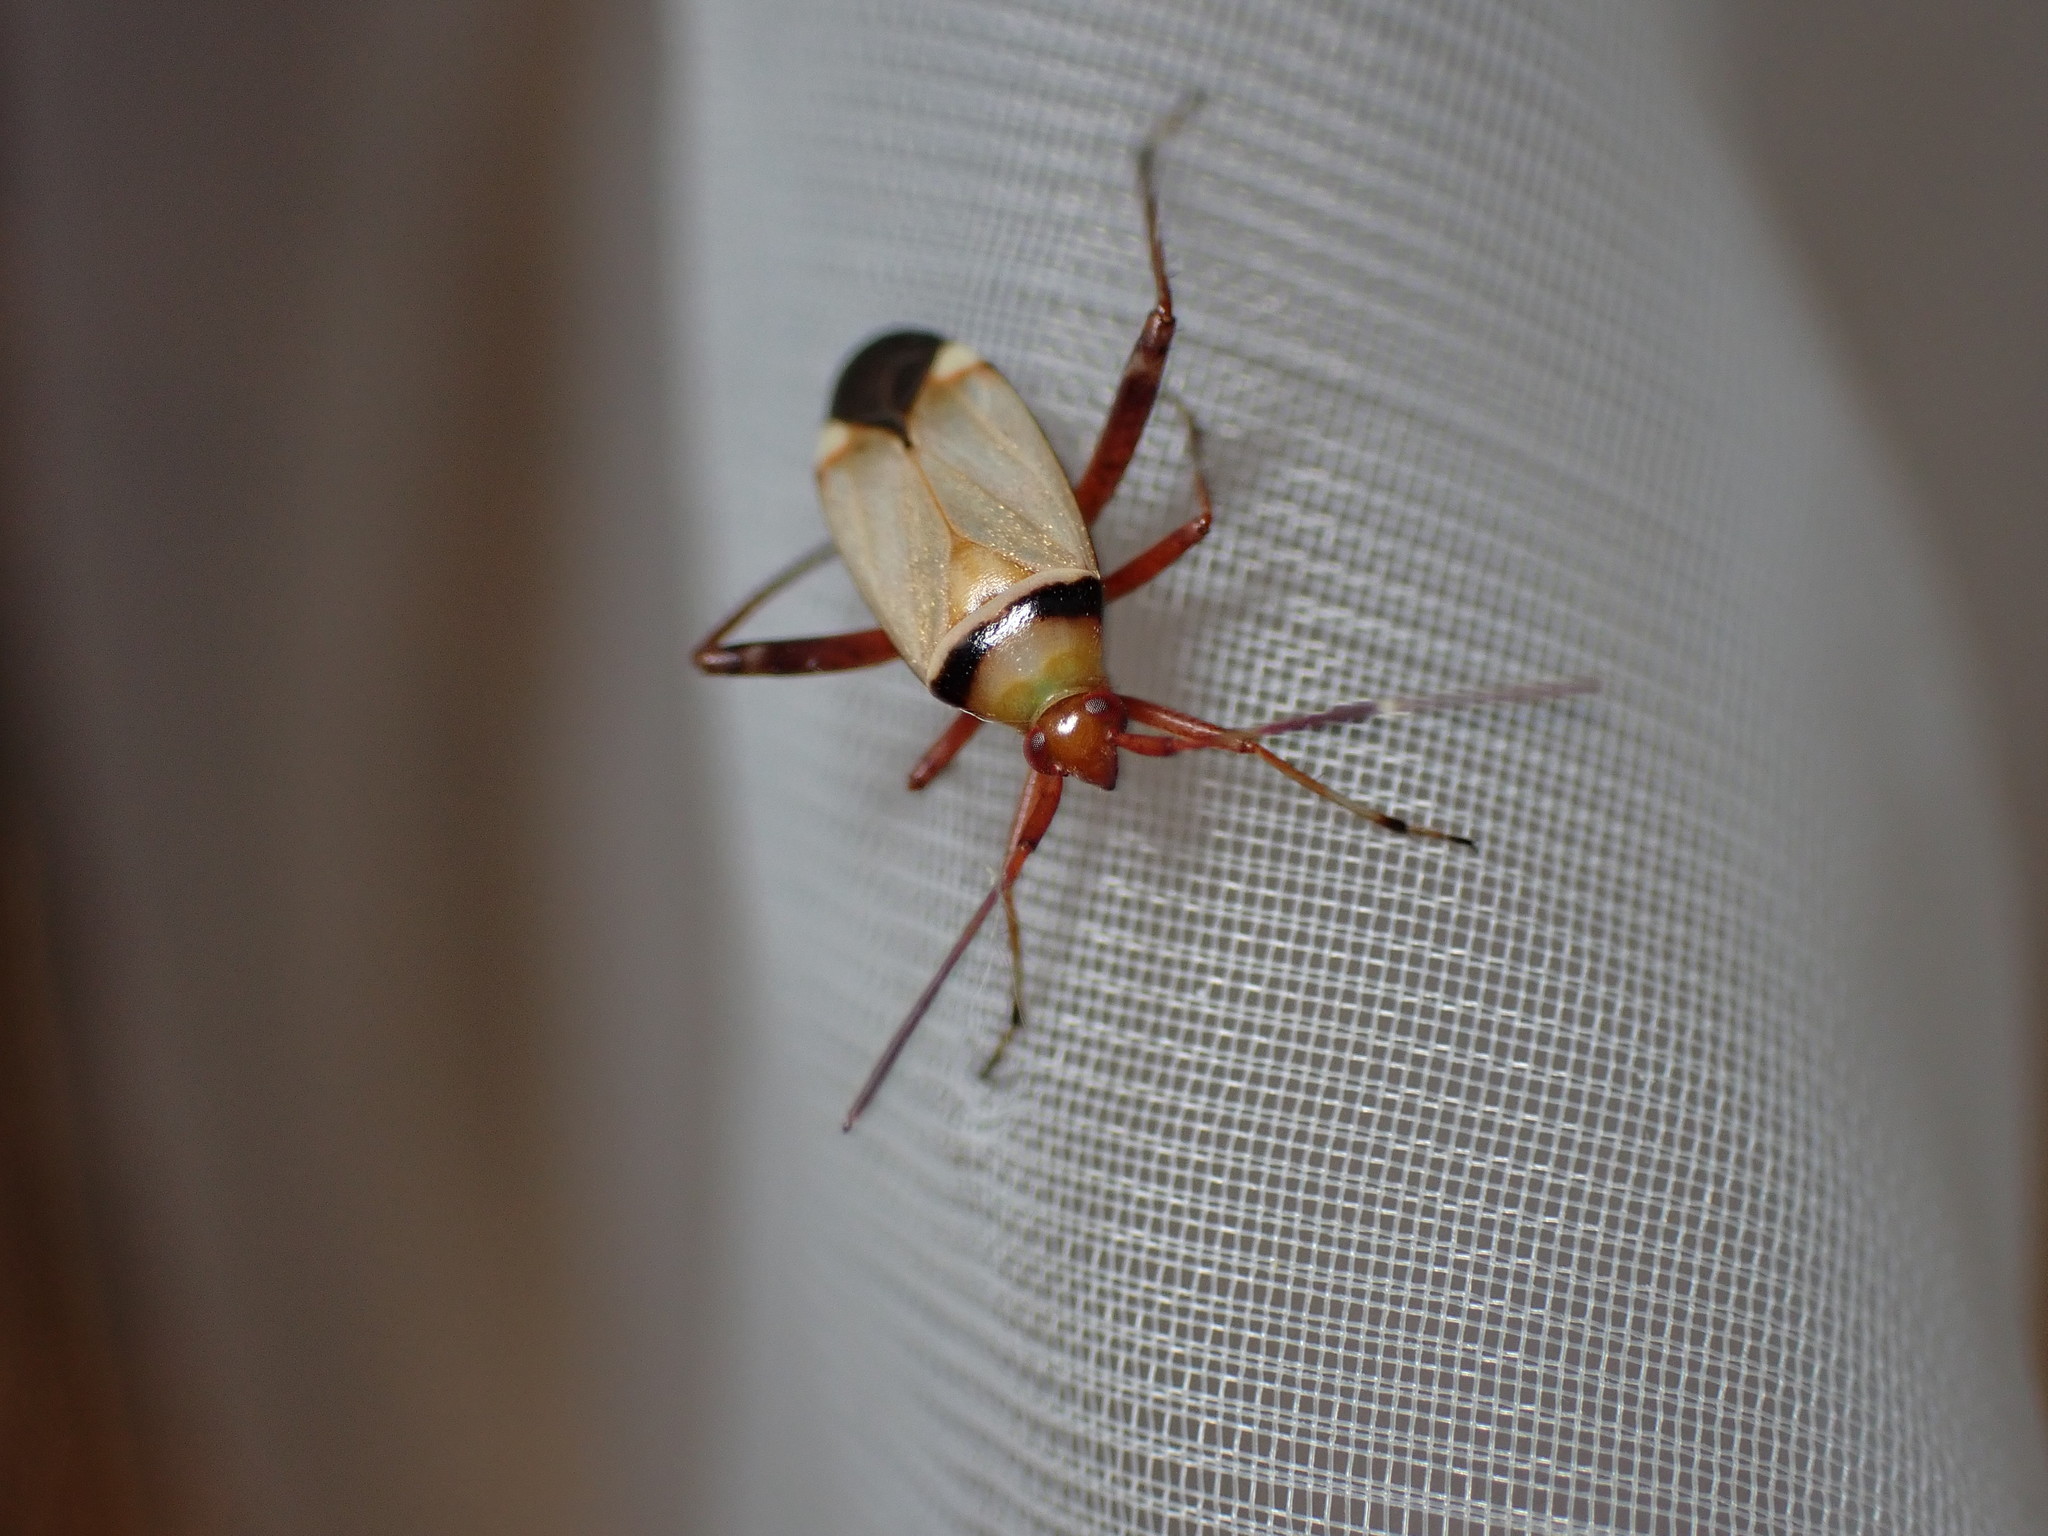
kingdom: Animalia
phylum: Arthropoda
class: Insecta
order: Hemiptera
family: Miridae
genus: Adelphocoris
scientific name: Adelphocoris vandalicus
